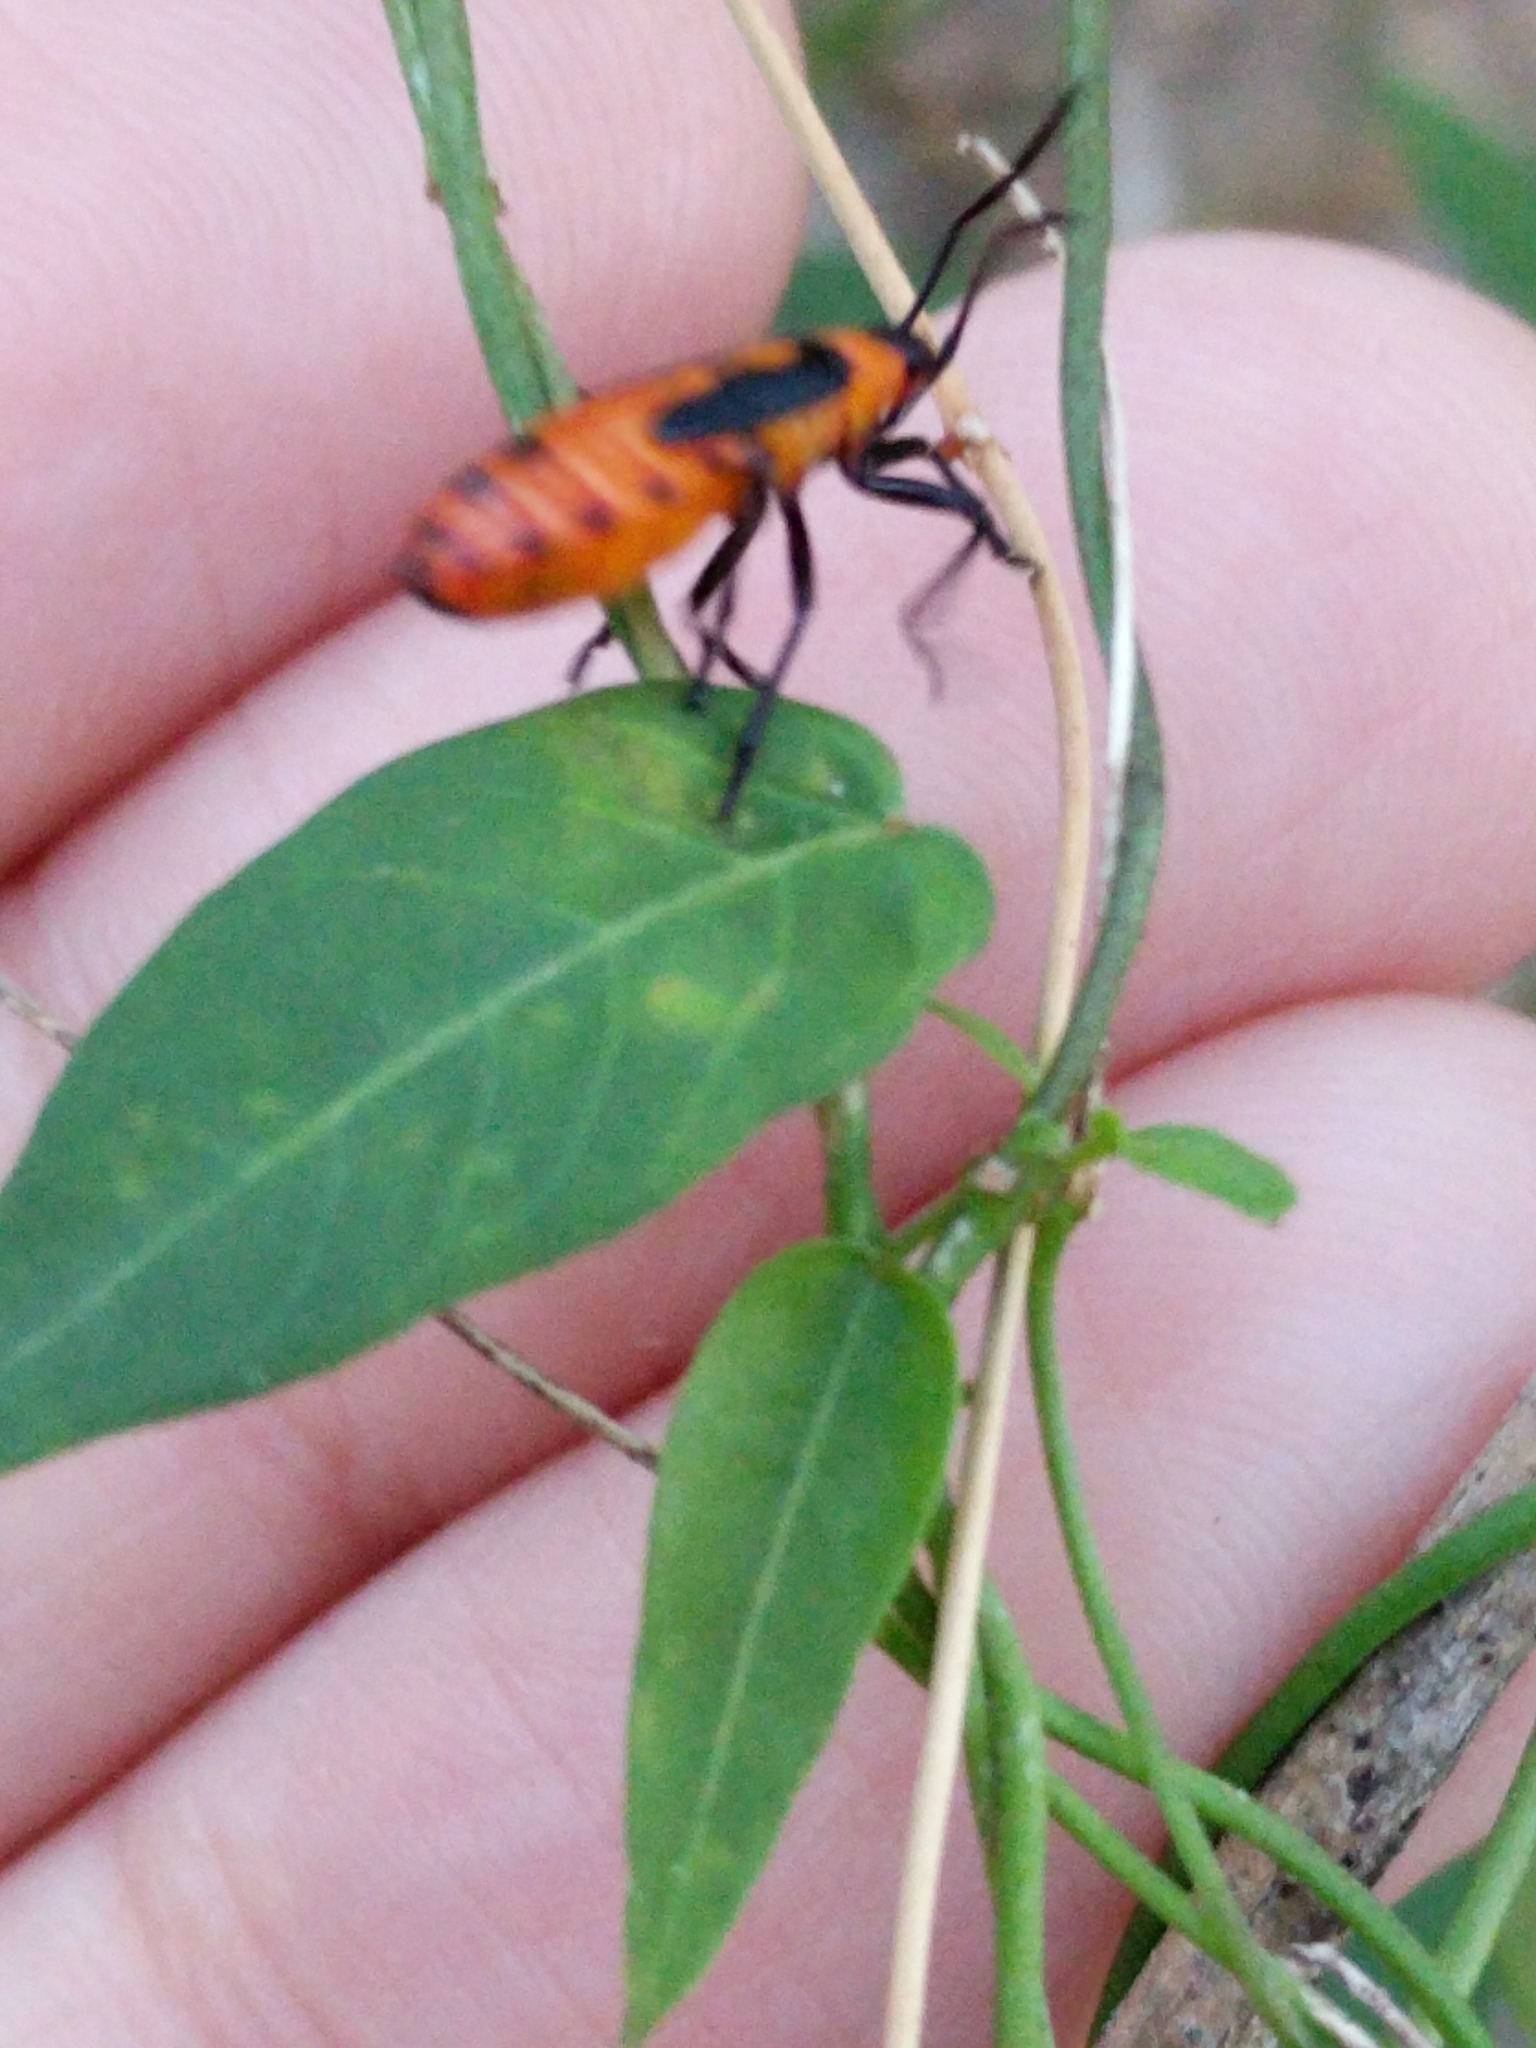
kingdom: Animalia
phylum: Arthropoda
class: Insecta
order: Hemiptera
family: Lygaeidae
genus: Oncopeltus
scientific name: Oncopeltus fasciatus
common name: Large milkweed bug
